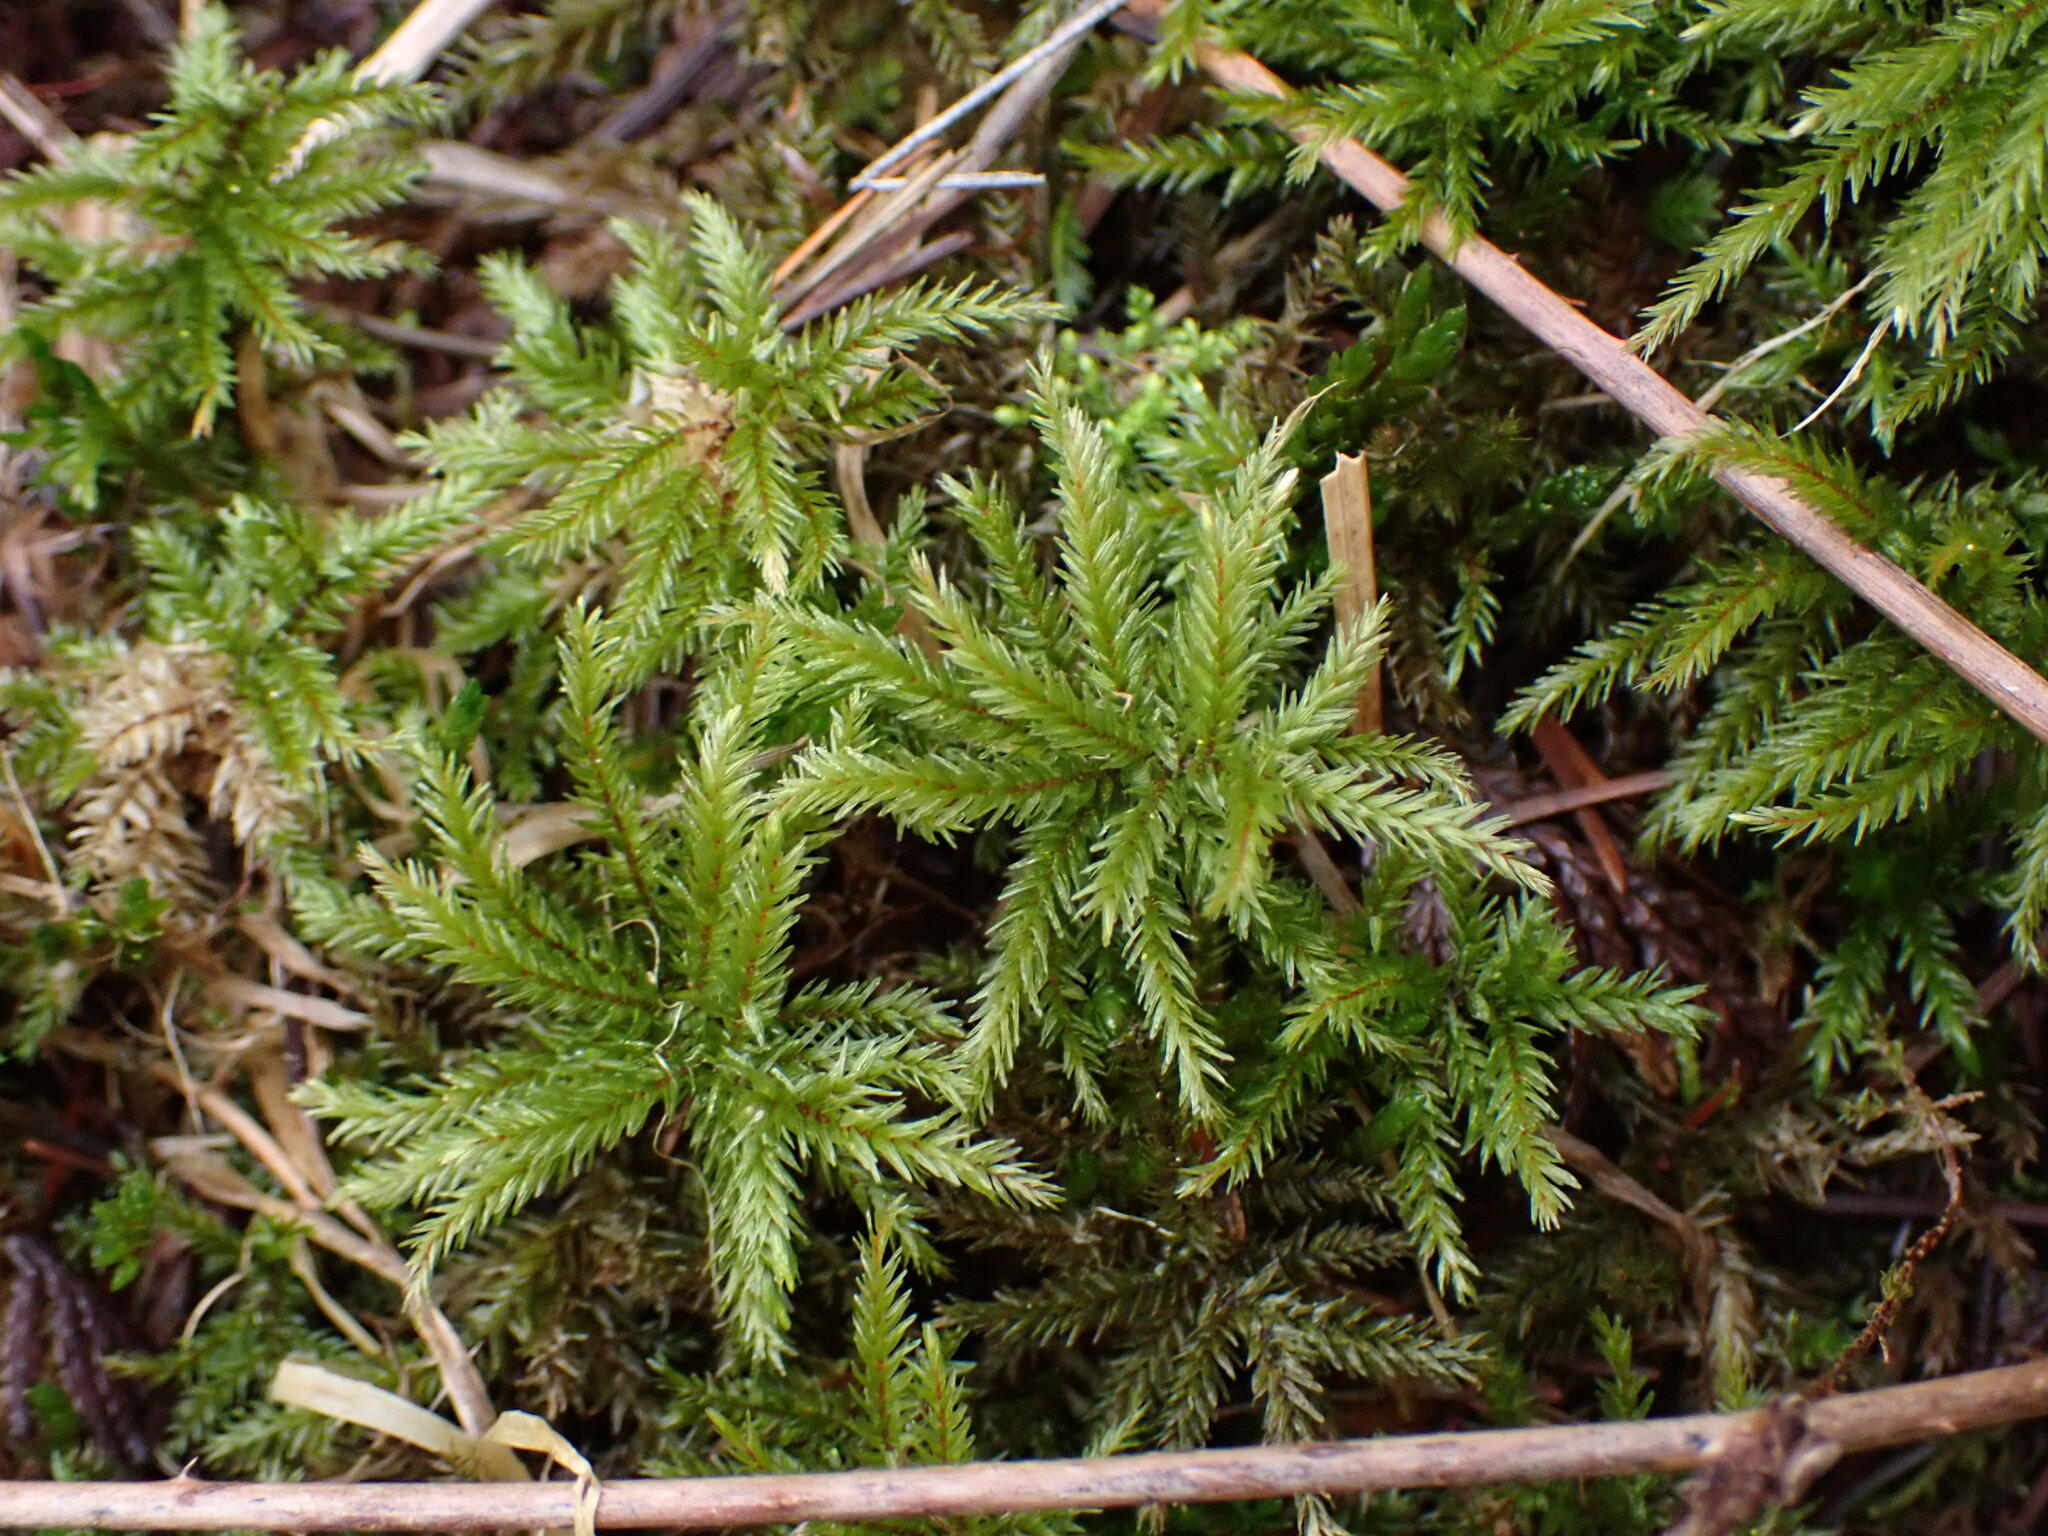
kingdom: Plantae
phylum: Bryophyta
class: Bryopsida
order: Hypnales
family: Climaciaceae
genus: Climacium
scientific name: Climacium dendroides
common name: Northern tree moss
